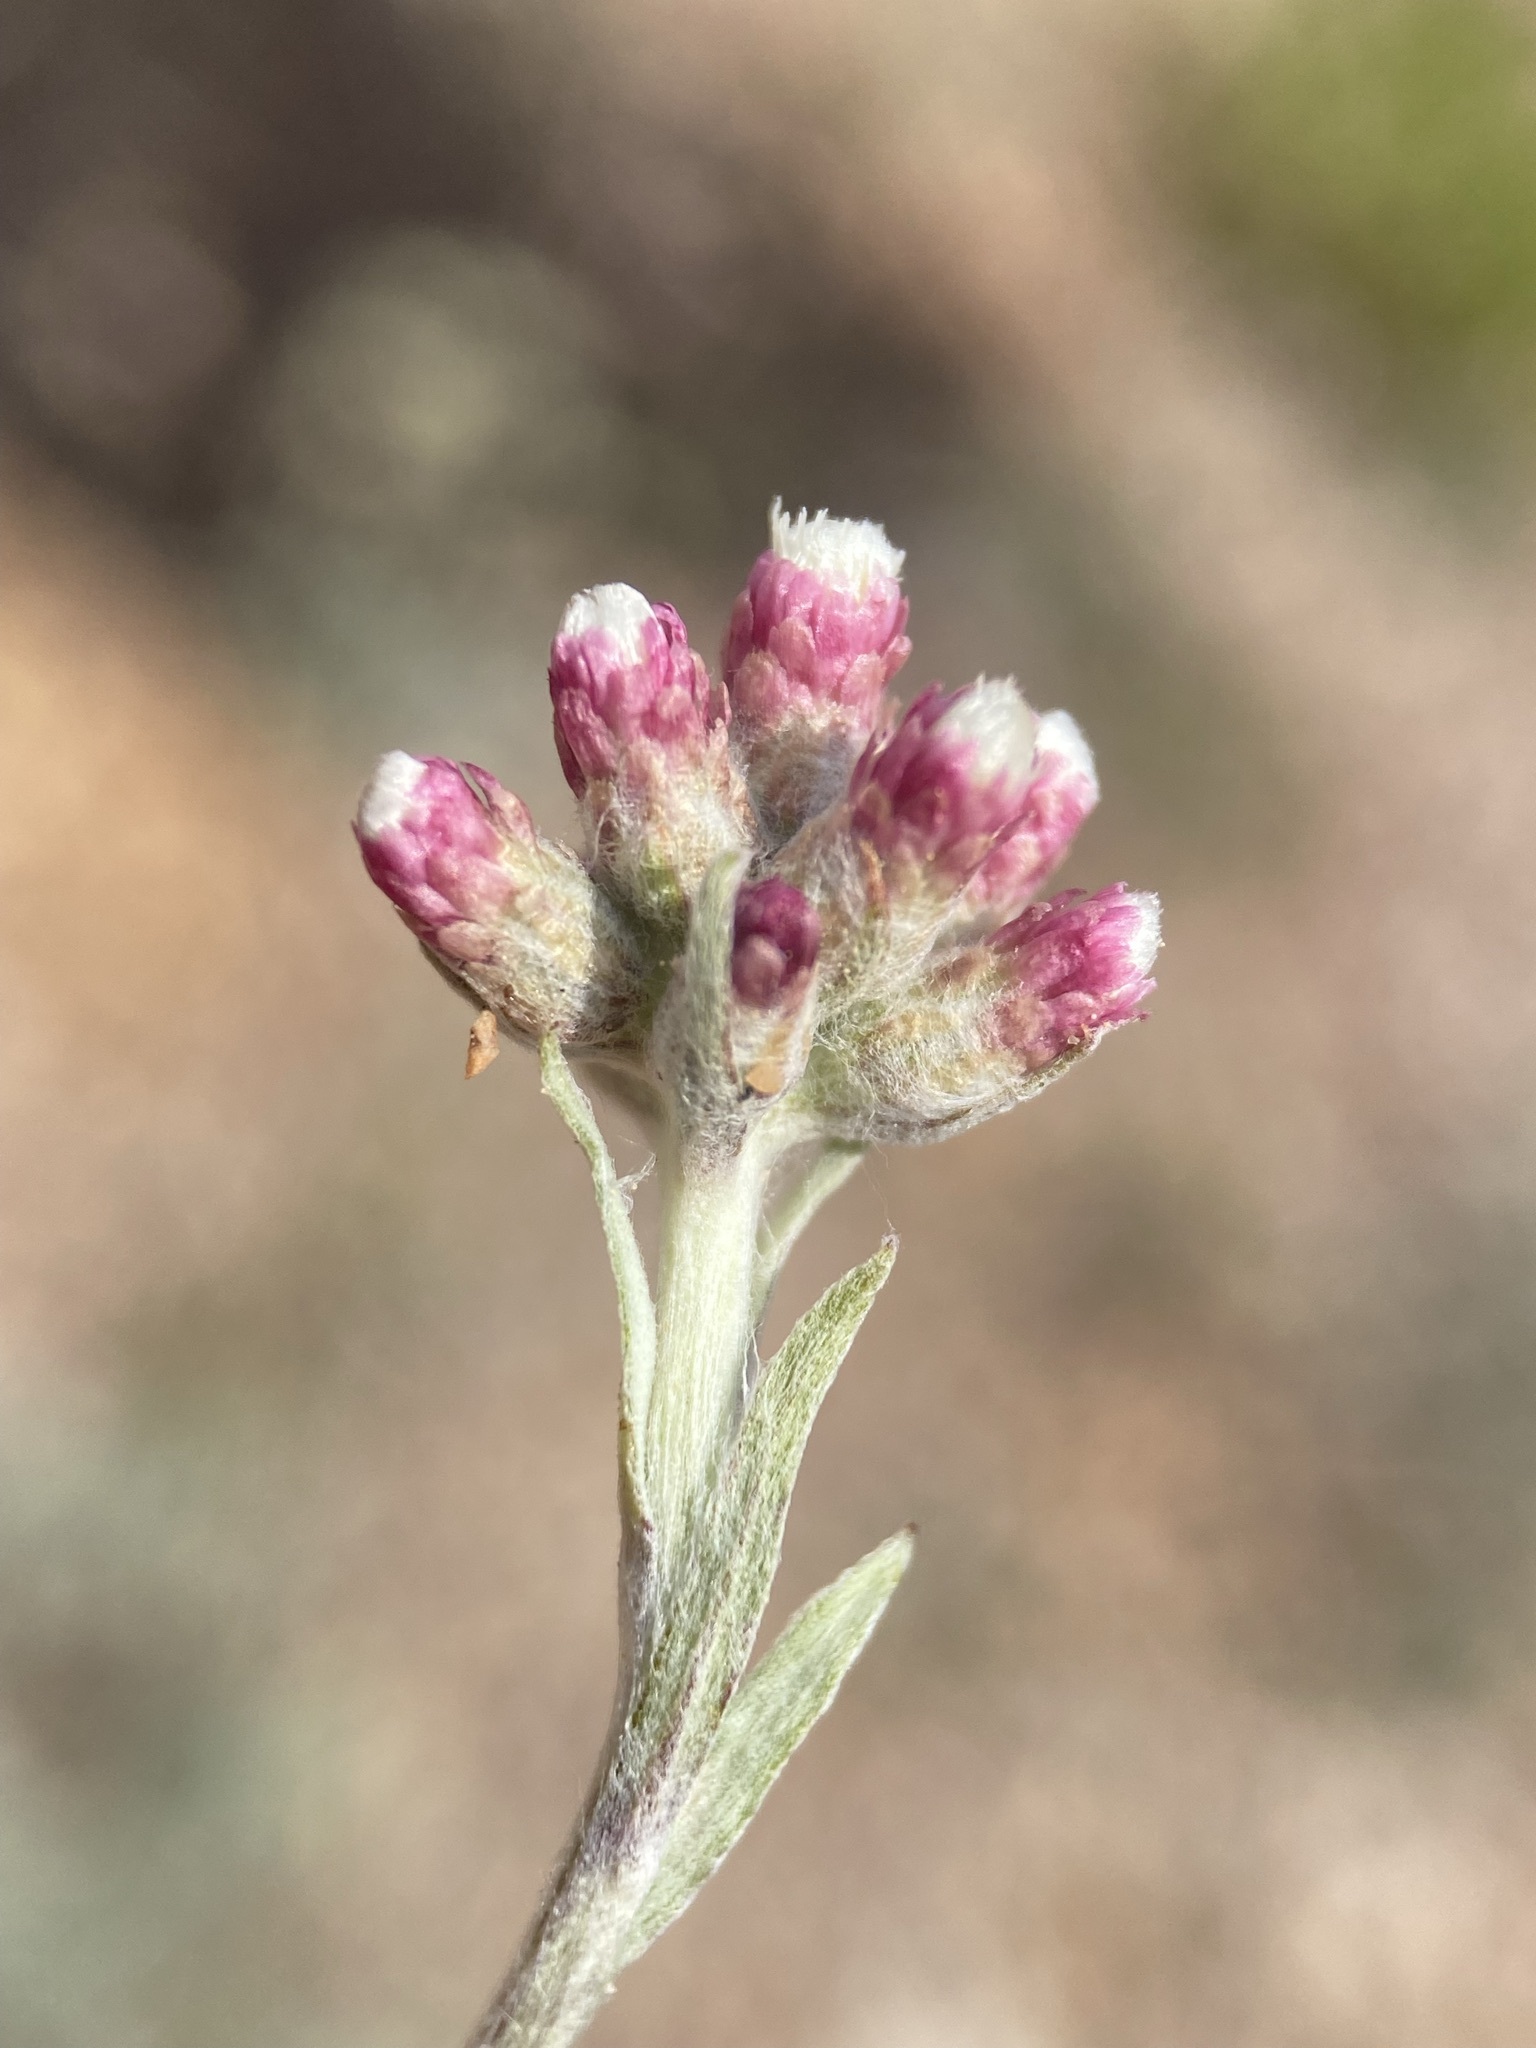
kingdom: Plantae
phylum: Tracheophyta
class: Magnoliopsida
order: Asterales
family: Asteraceae
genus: Antennaria
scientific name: Antennaria rosea
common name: Rosy pussytoes
